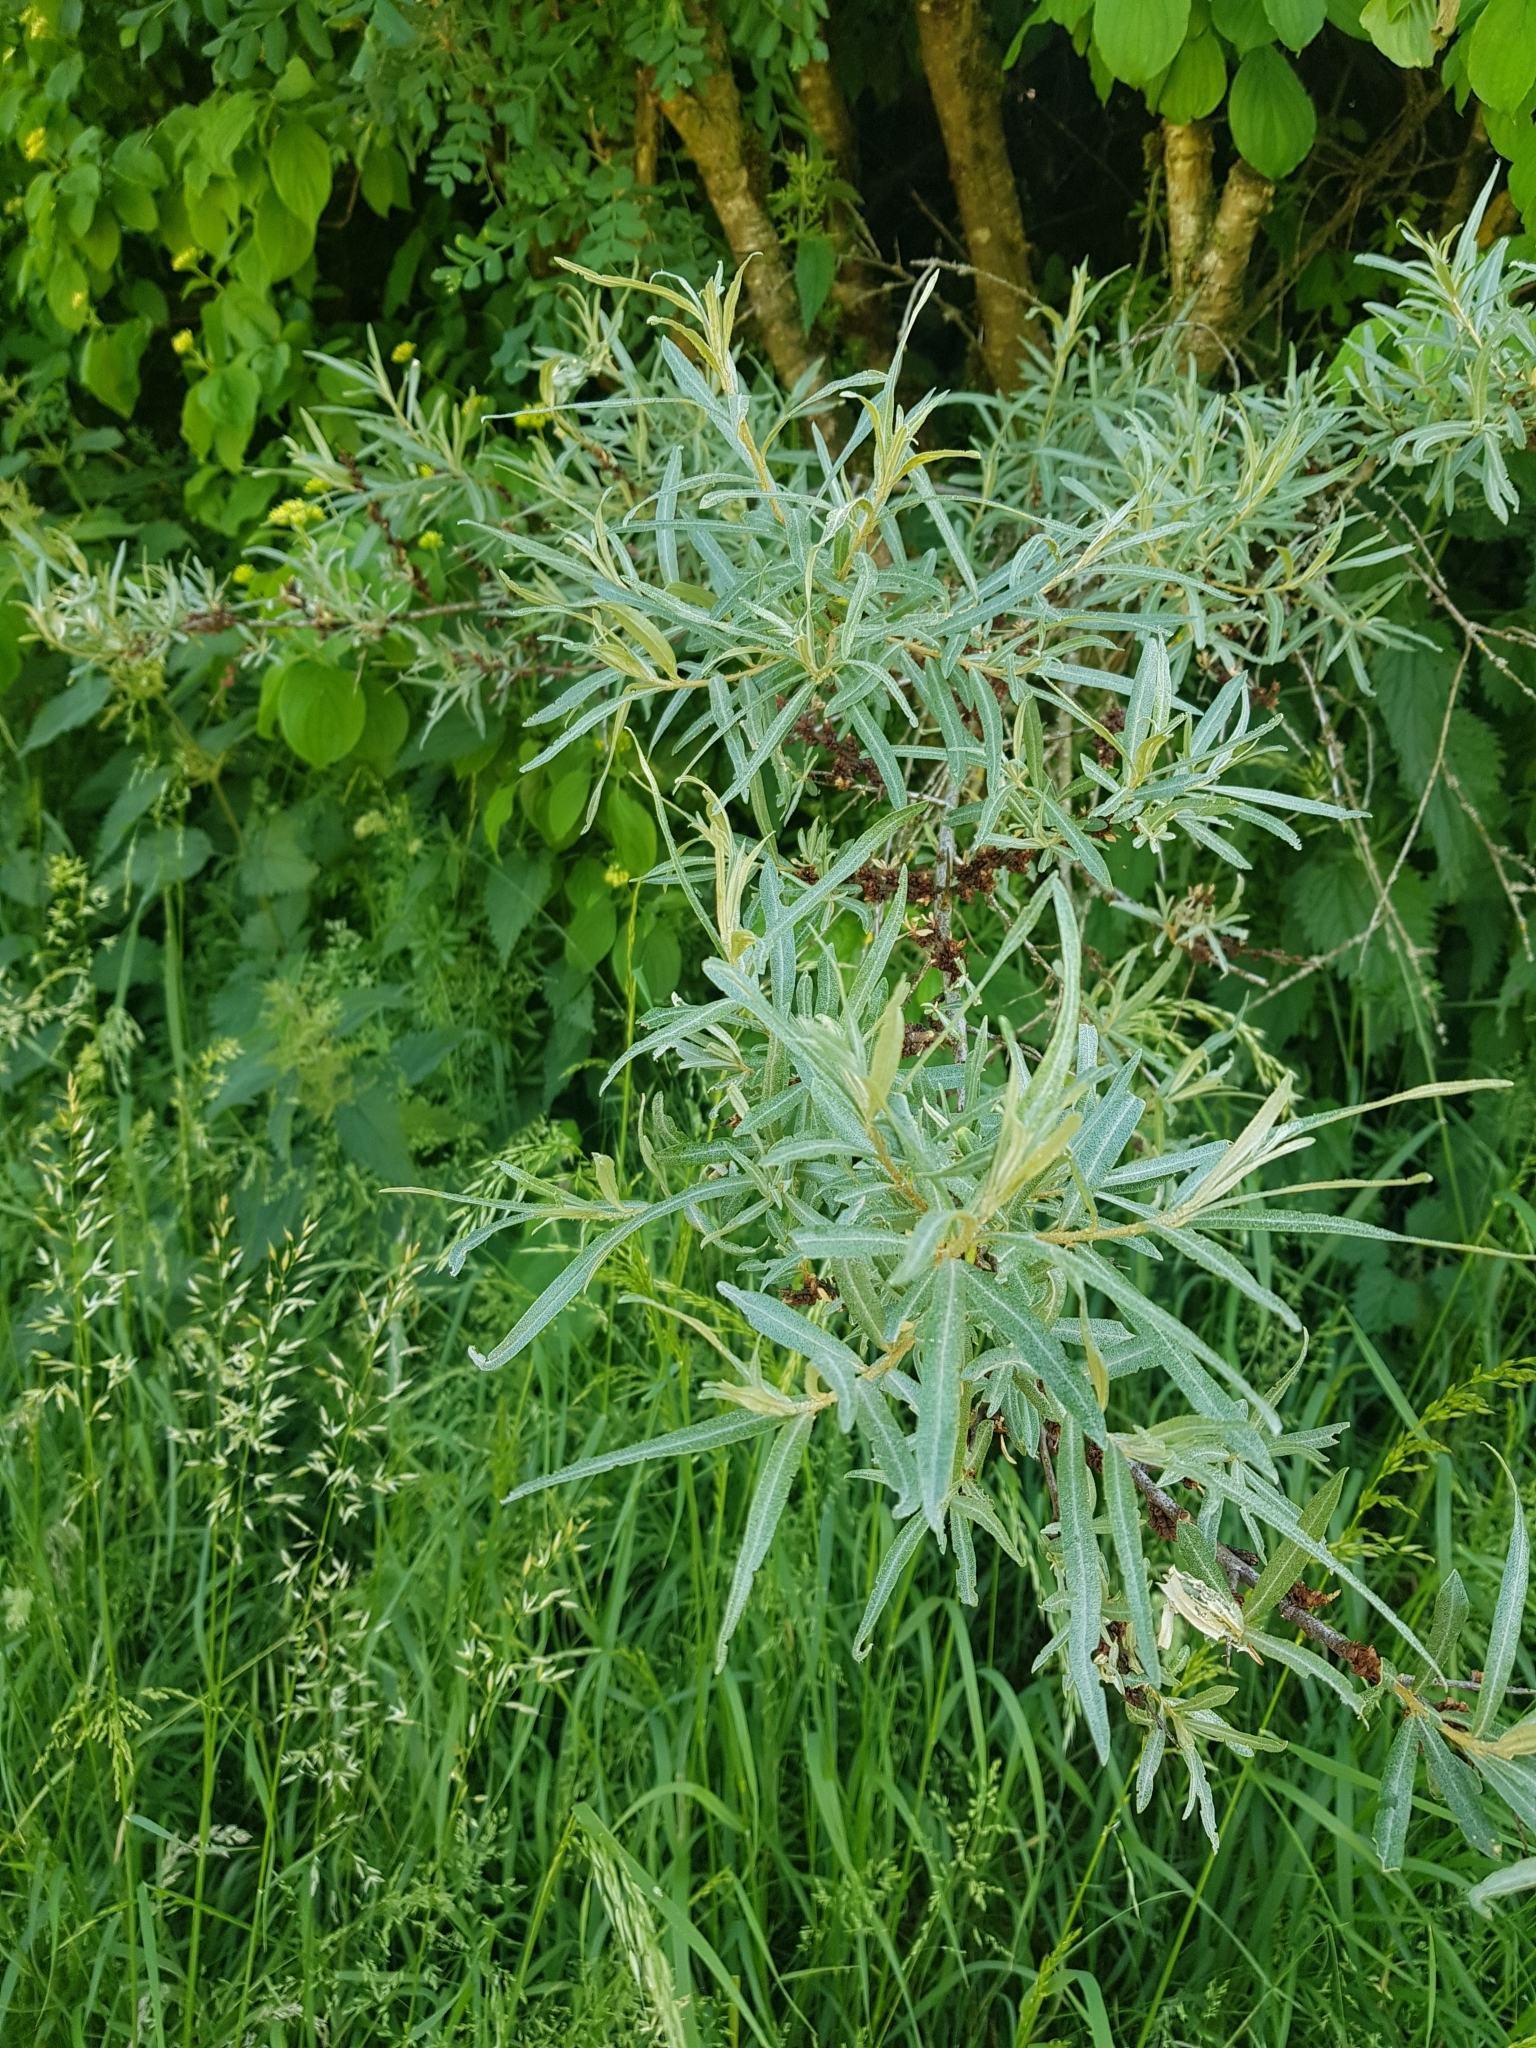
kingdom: Plantae
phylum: Tracheophyta
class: Magnoliopsida
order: Rosales
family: Elaeagnaceae
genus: Hippophae
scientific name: Hippophae rhamnoides
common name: Sea-buckthorn
